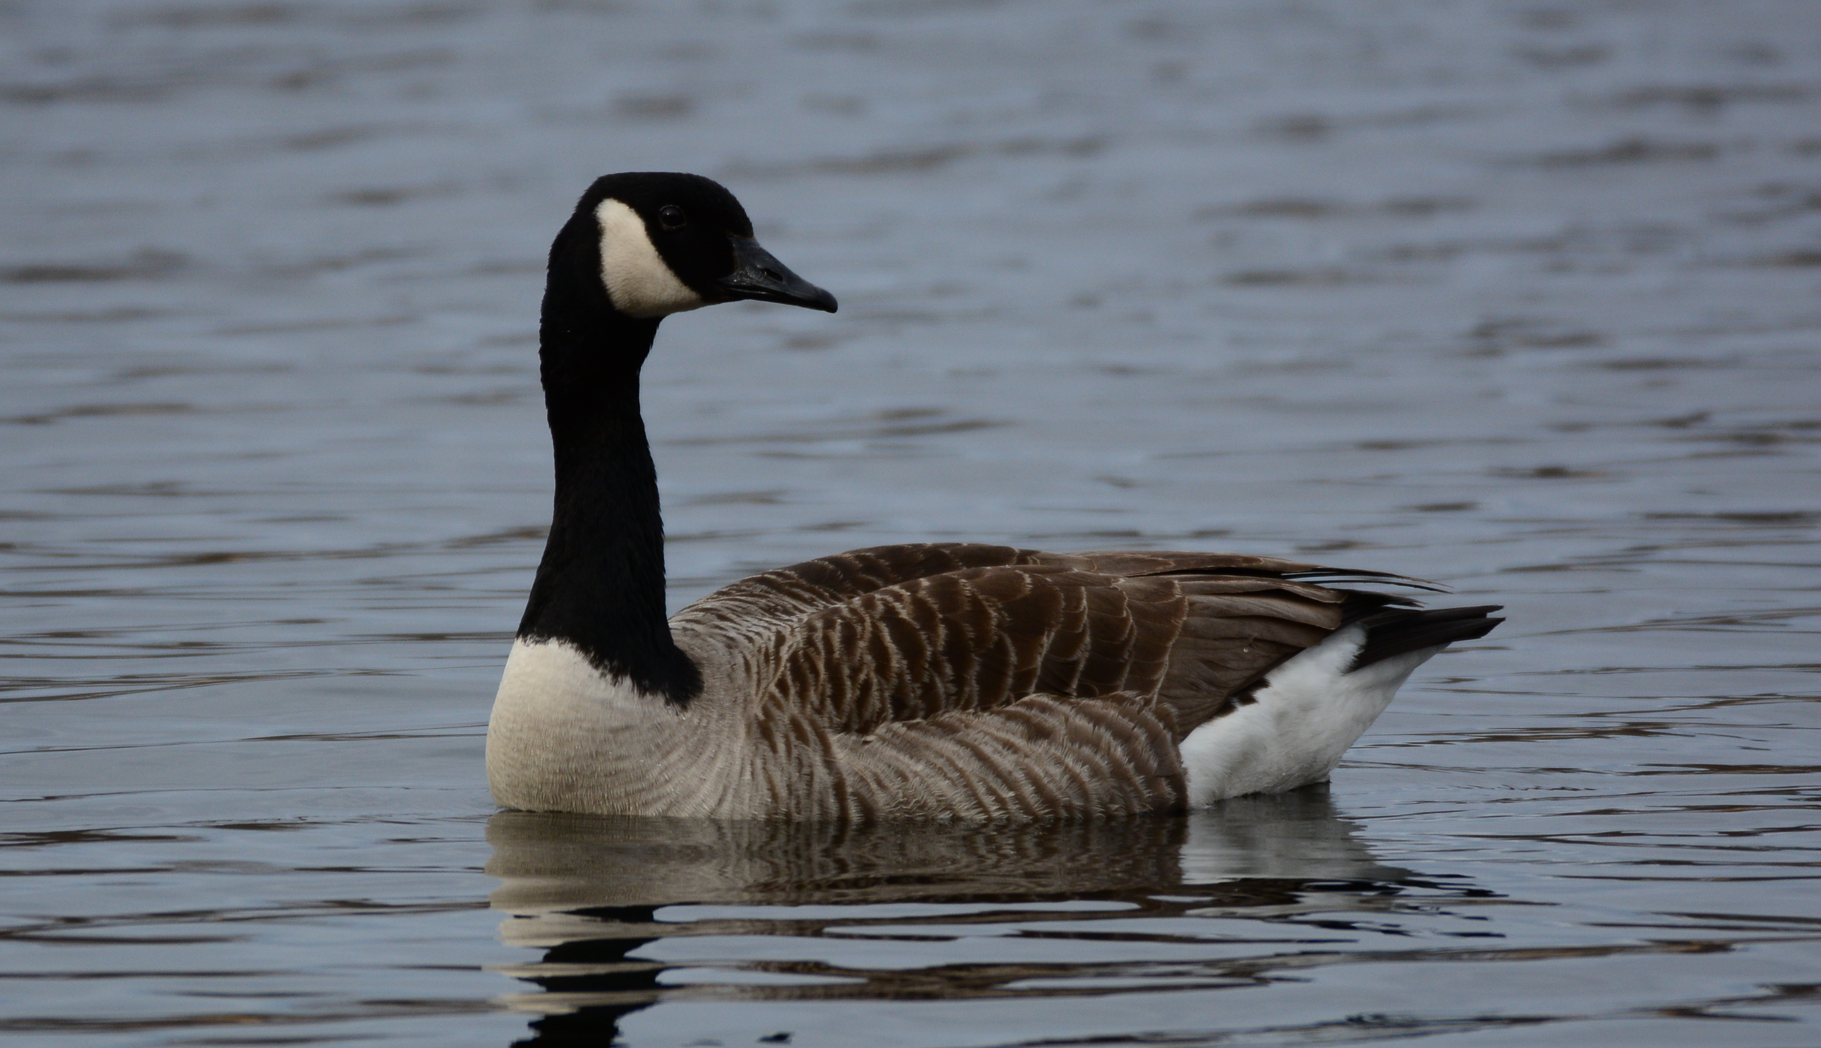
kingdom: Animalia
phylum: Chordata
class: Aves
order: Anseriformes
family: Anatidae
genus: Branta
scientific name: Branta canadensis
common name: Canada goose
